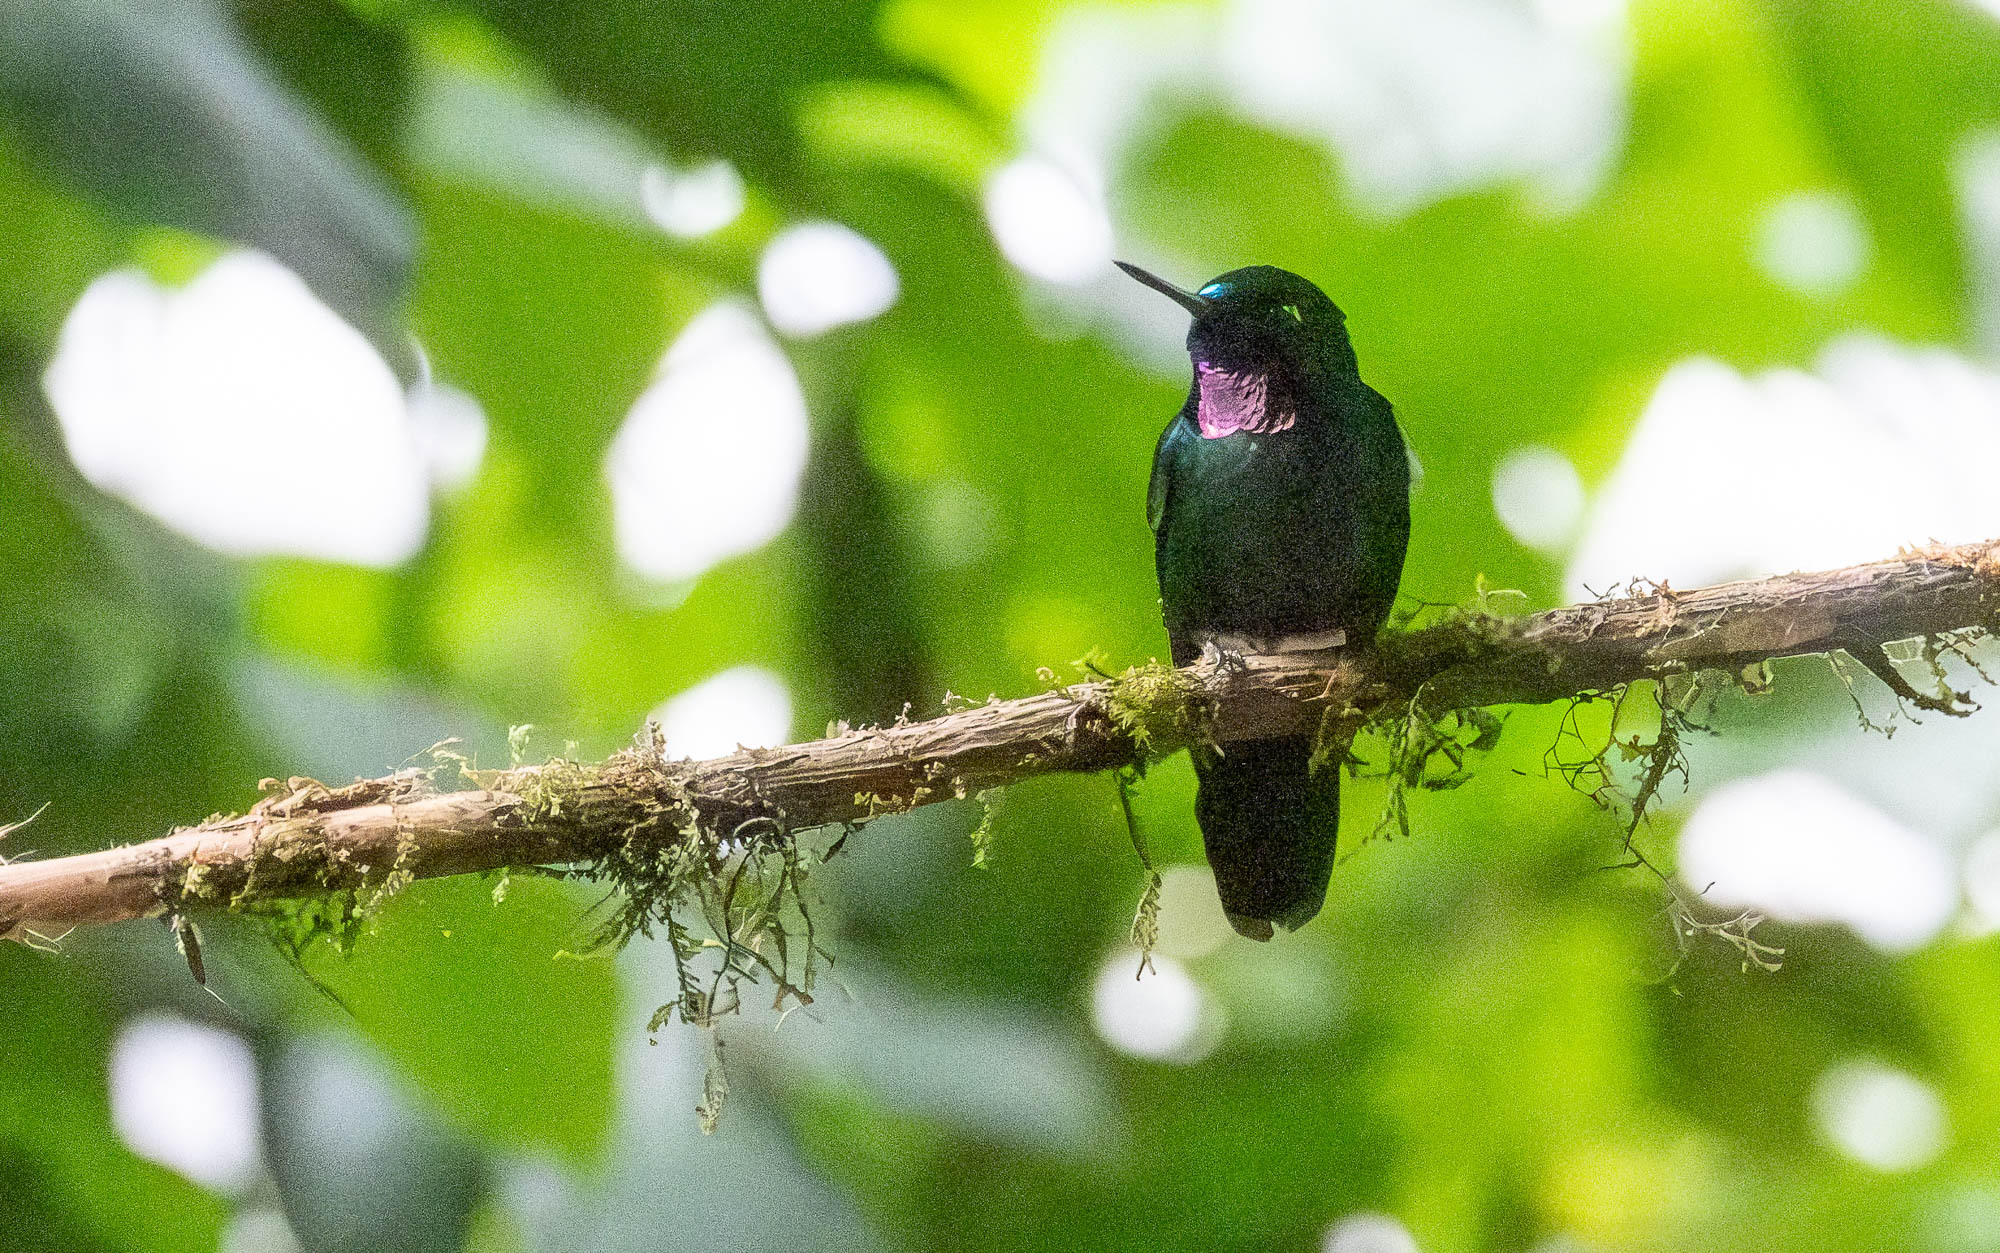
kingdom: Animalia
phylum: Chordata
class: Aves
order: Apodiformes
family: Trochilidae
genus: Heliangelus
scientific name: Heliangelus exortis
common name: Tourmaline sunangel
